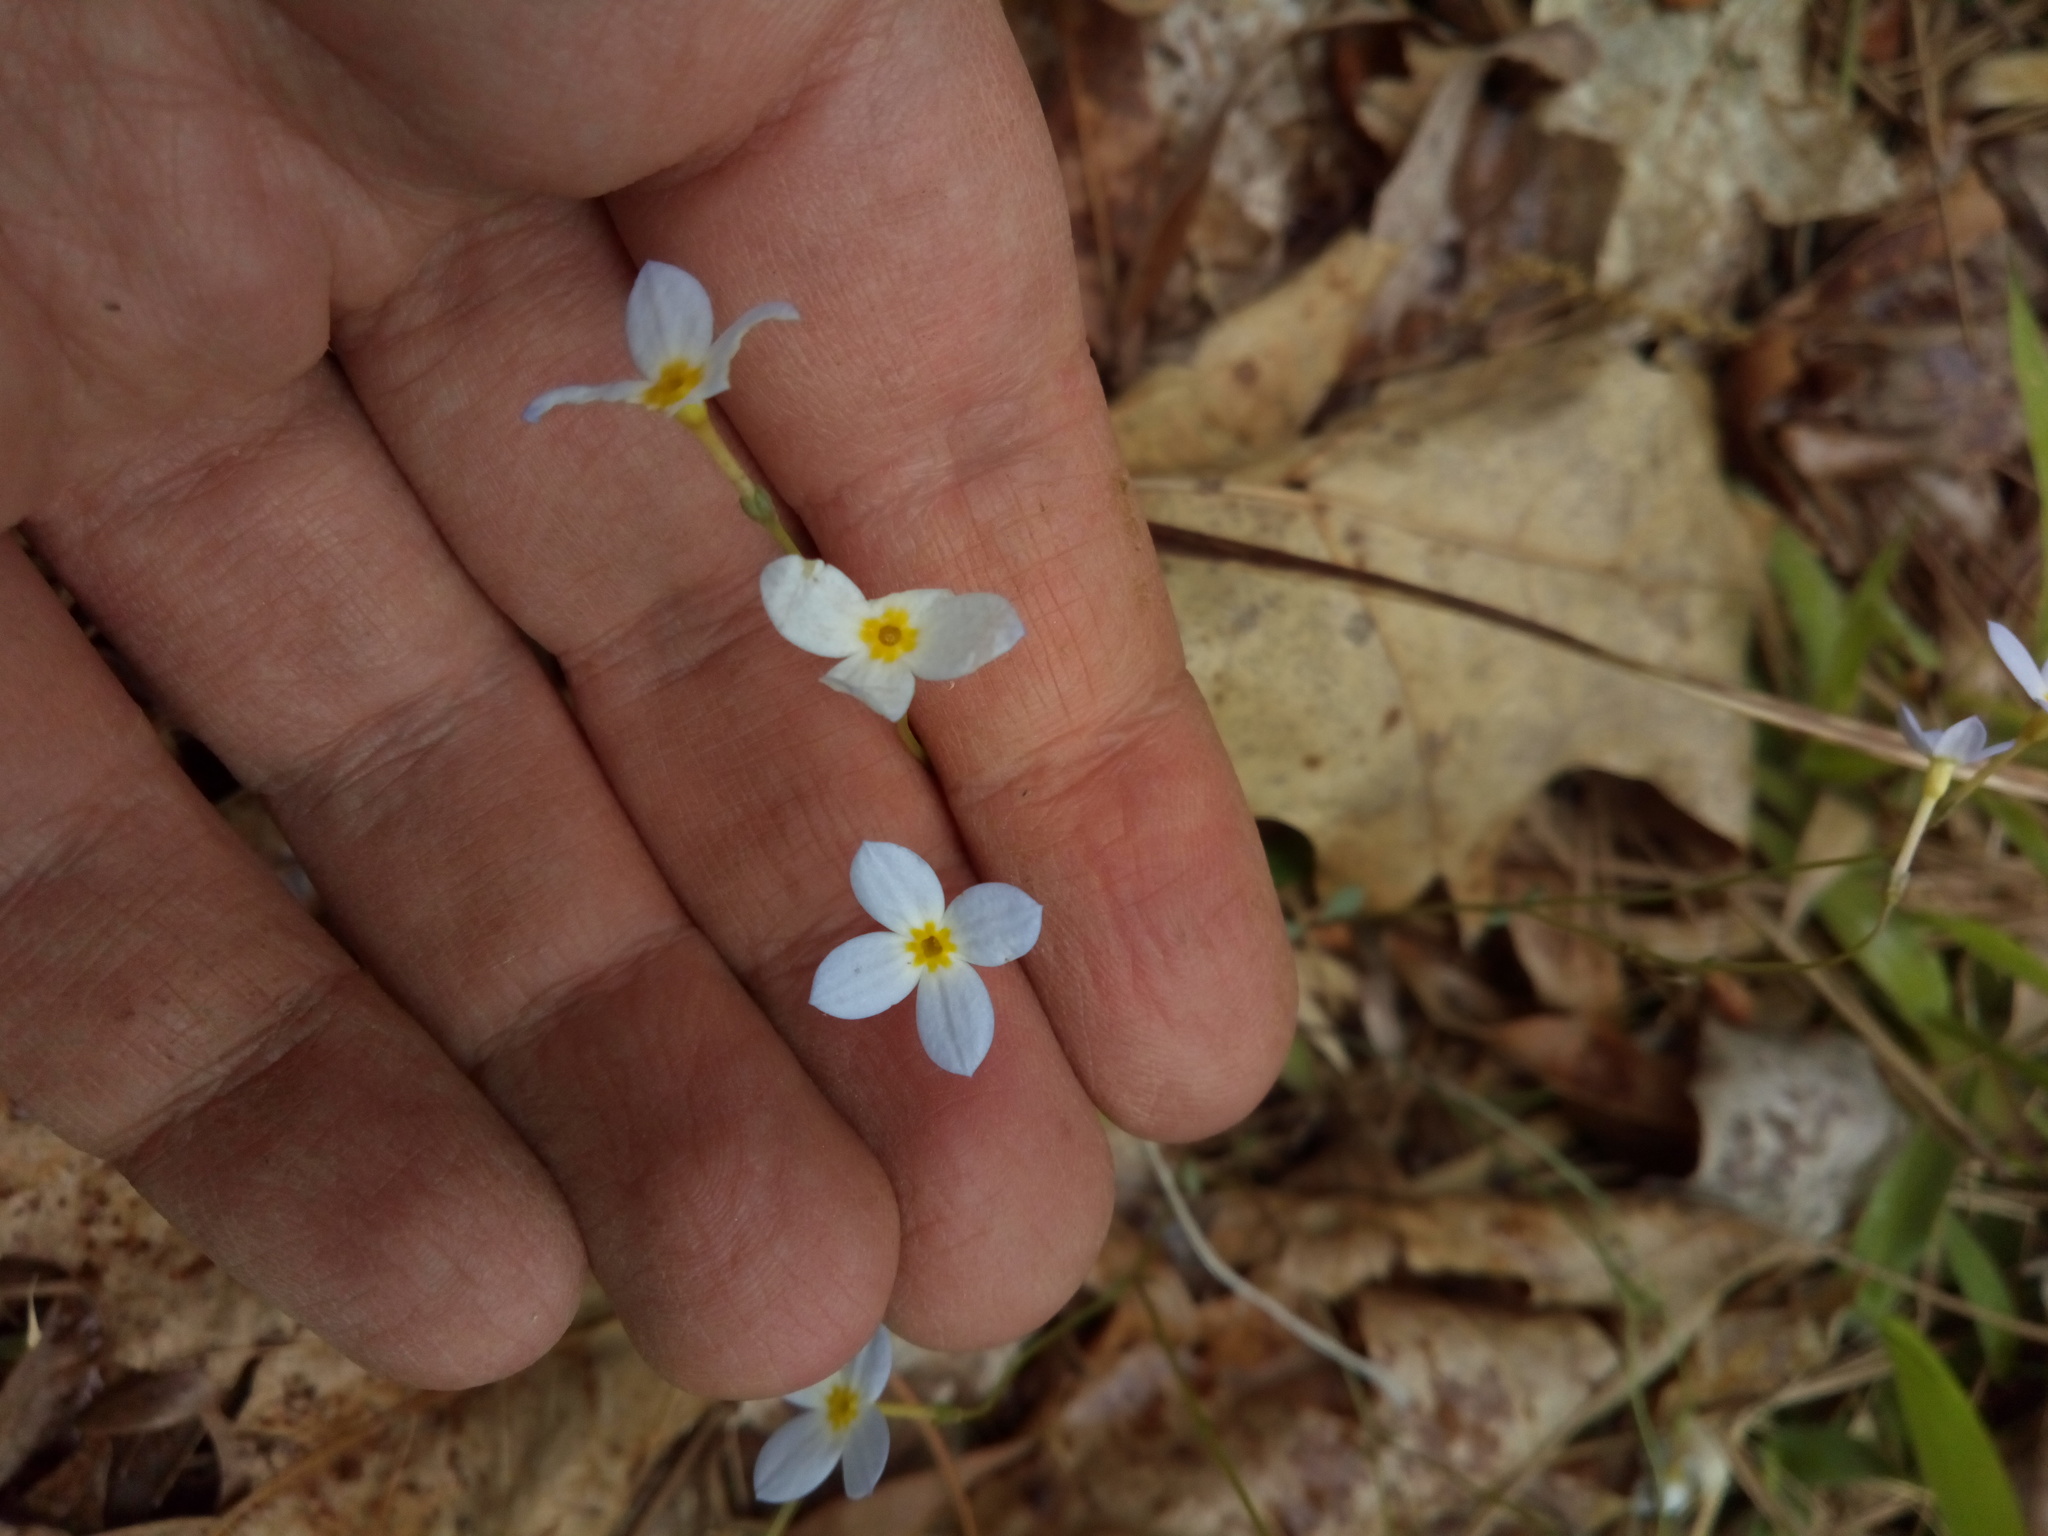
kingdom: Plantae
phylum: Tracheophyta
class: Magnoliopsida
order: Gentianales
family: Rubiaceae
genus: Houstonia
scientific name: Houstonia caerulea
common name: Bluets
